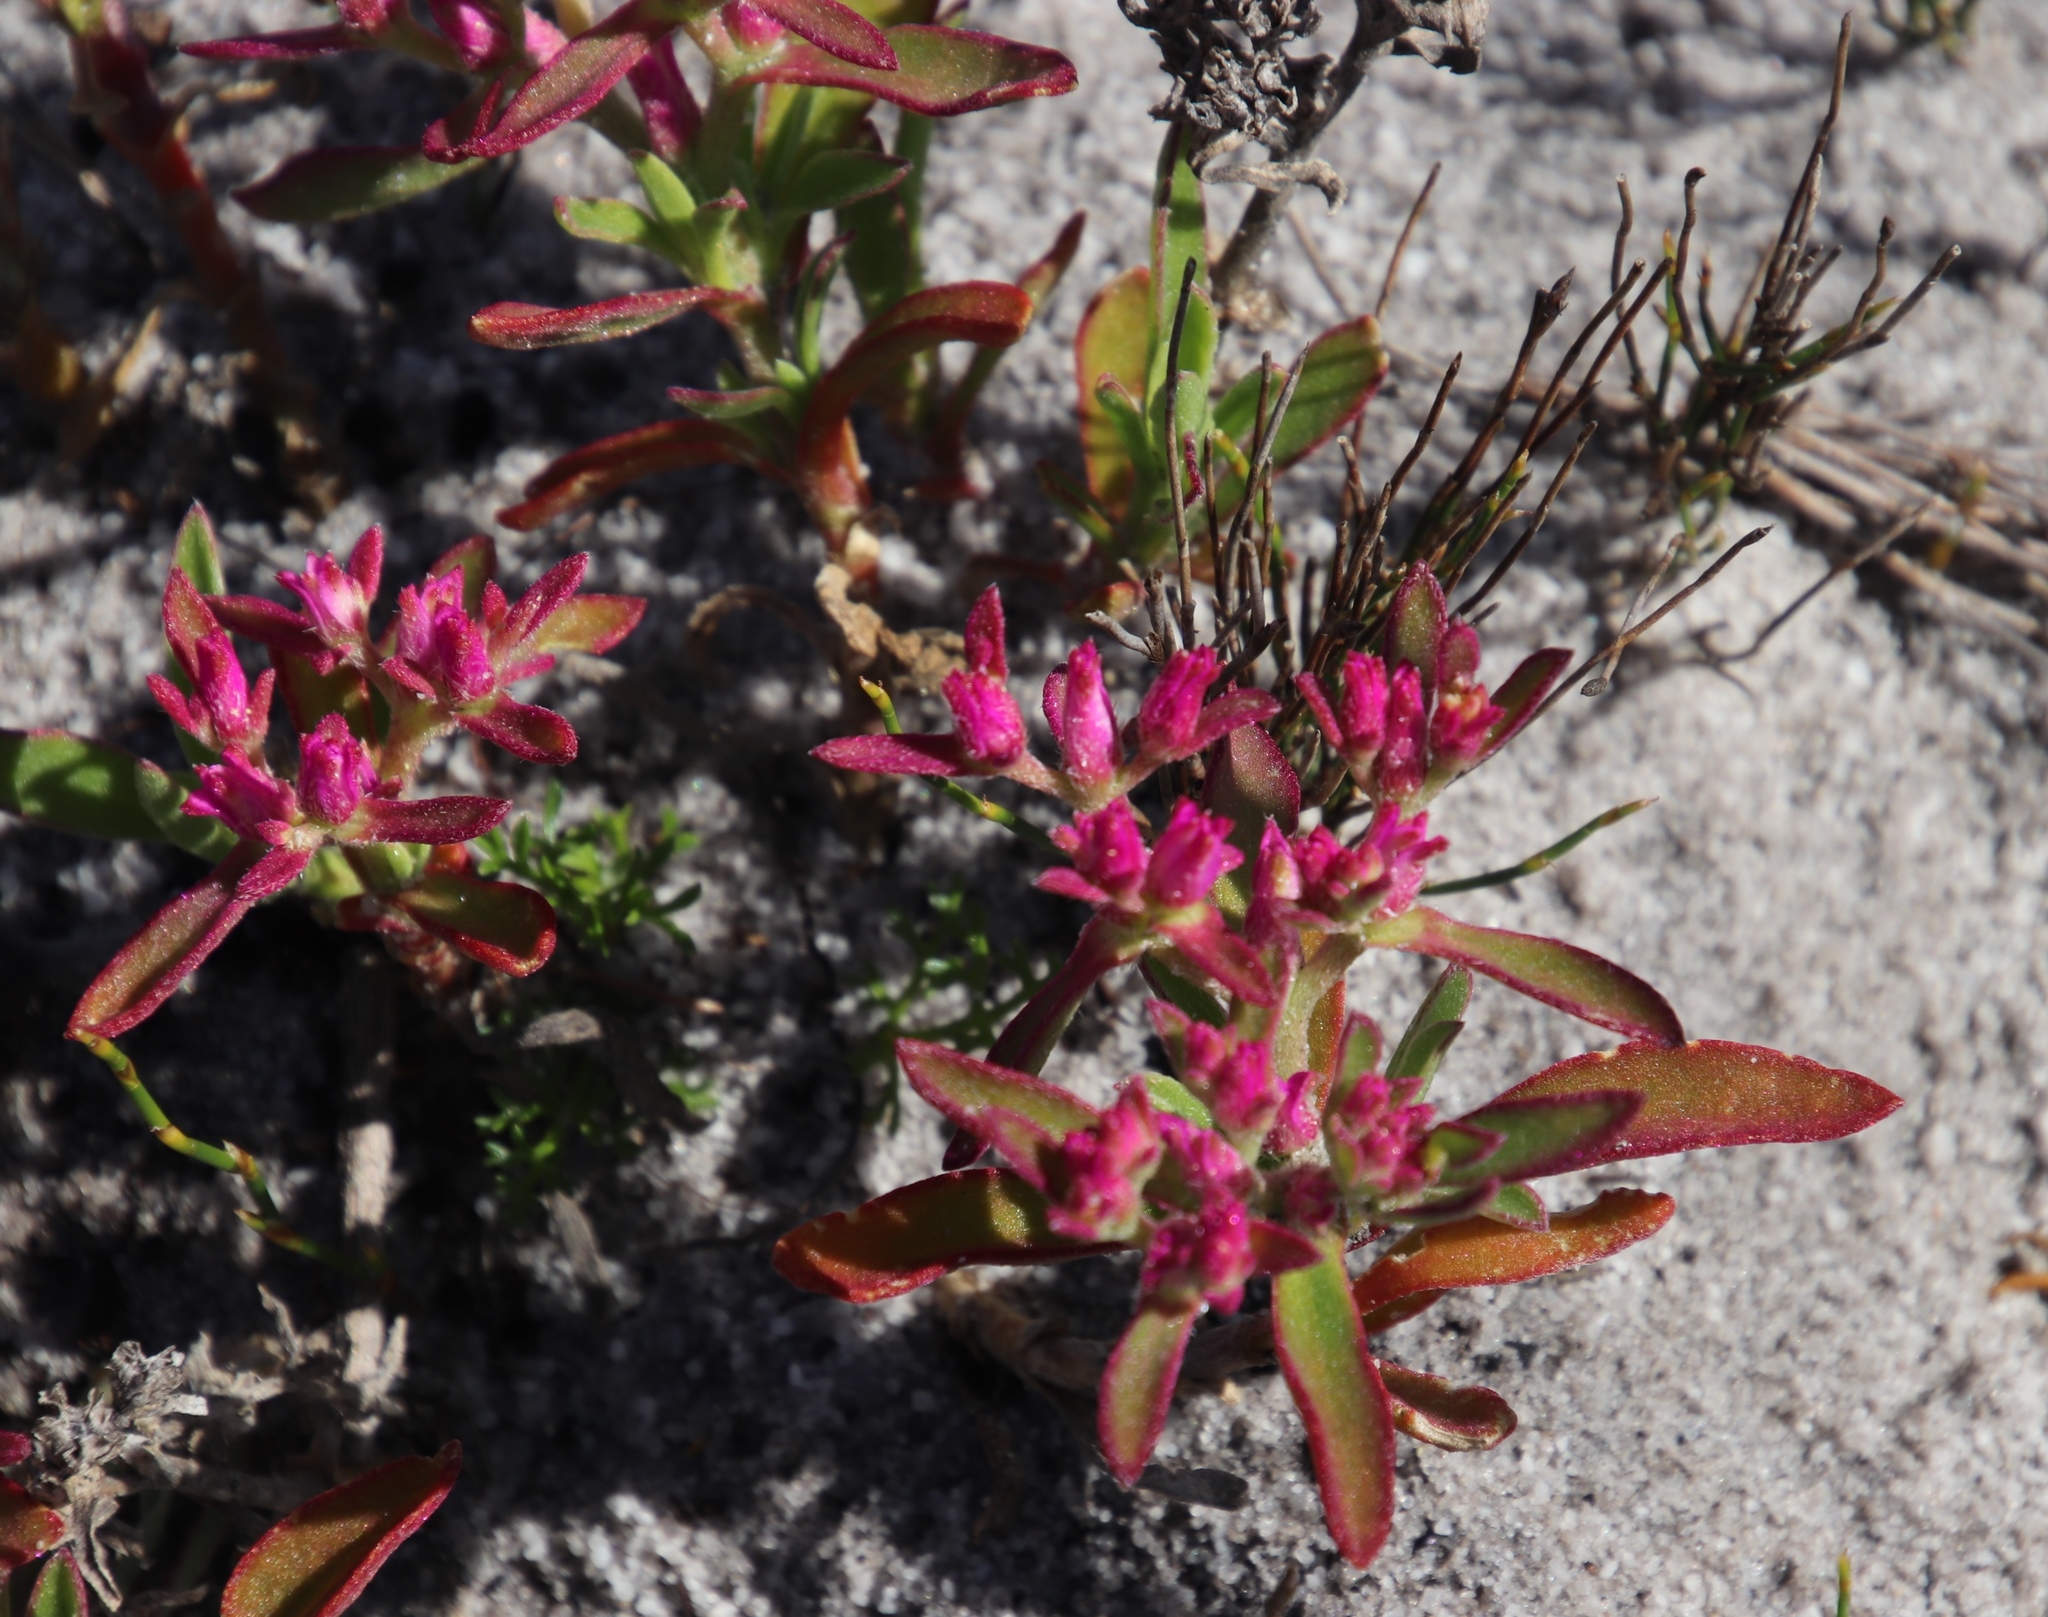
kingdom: Plantae
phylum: Tracheophyta
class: Magnoliopsida
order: Caryophyllales
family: Aizoaceae
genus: Aizoon
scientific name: Aizoon paniculatum
